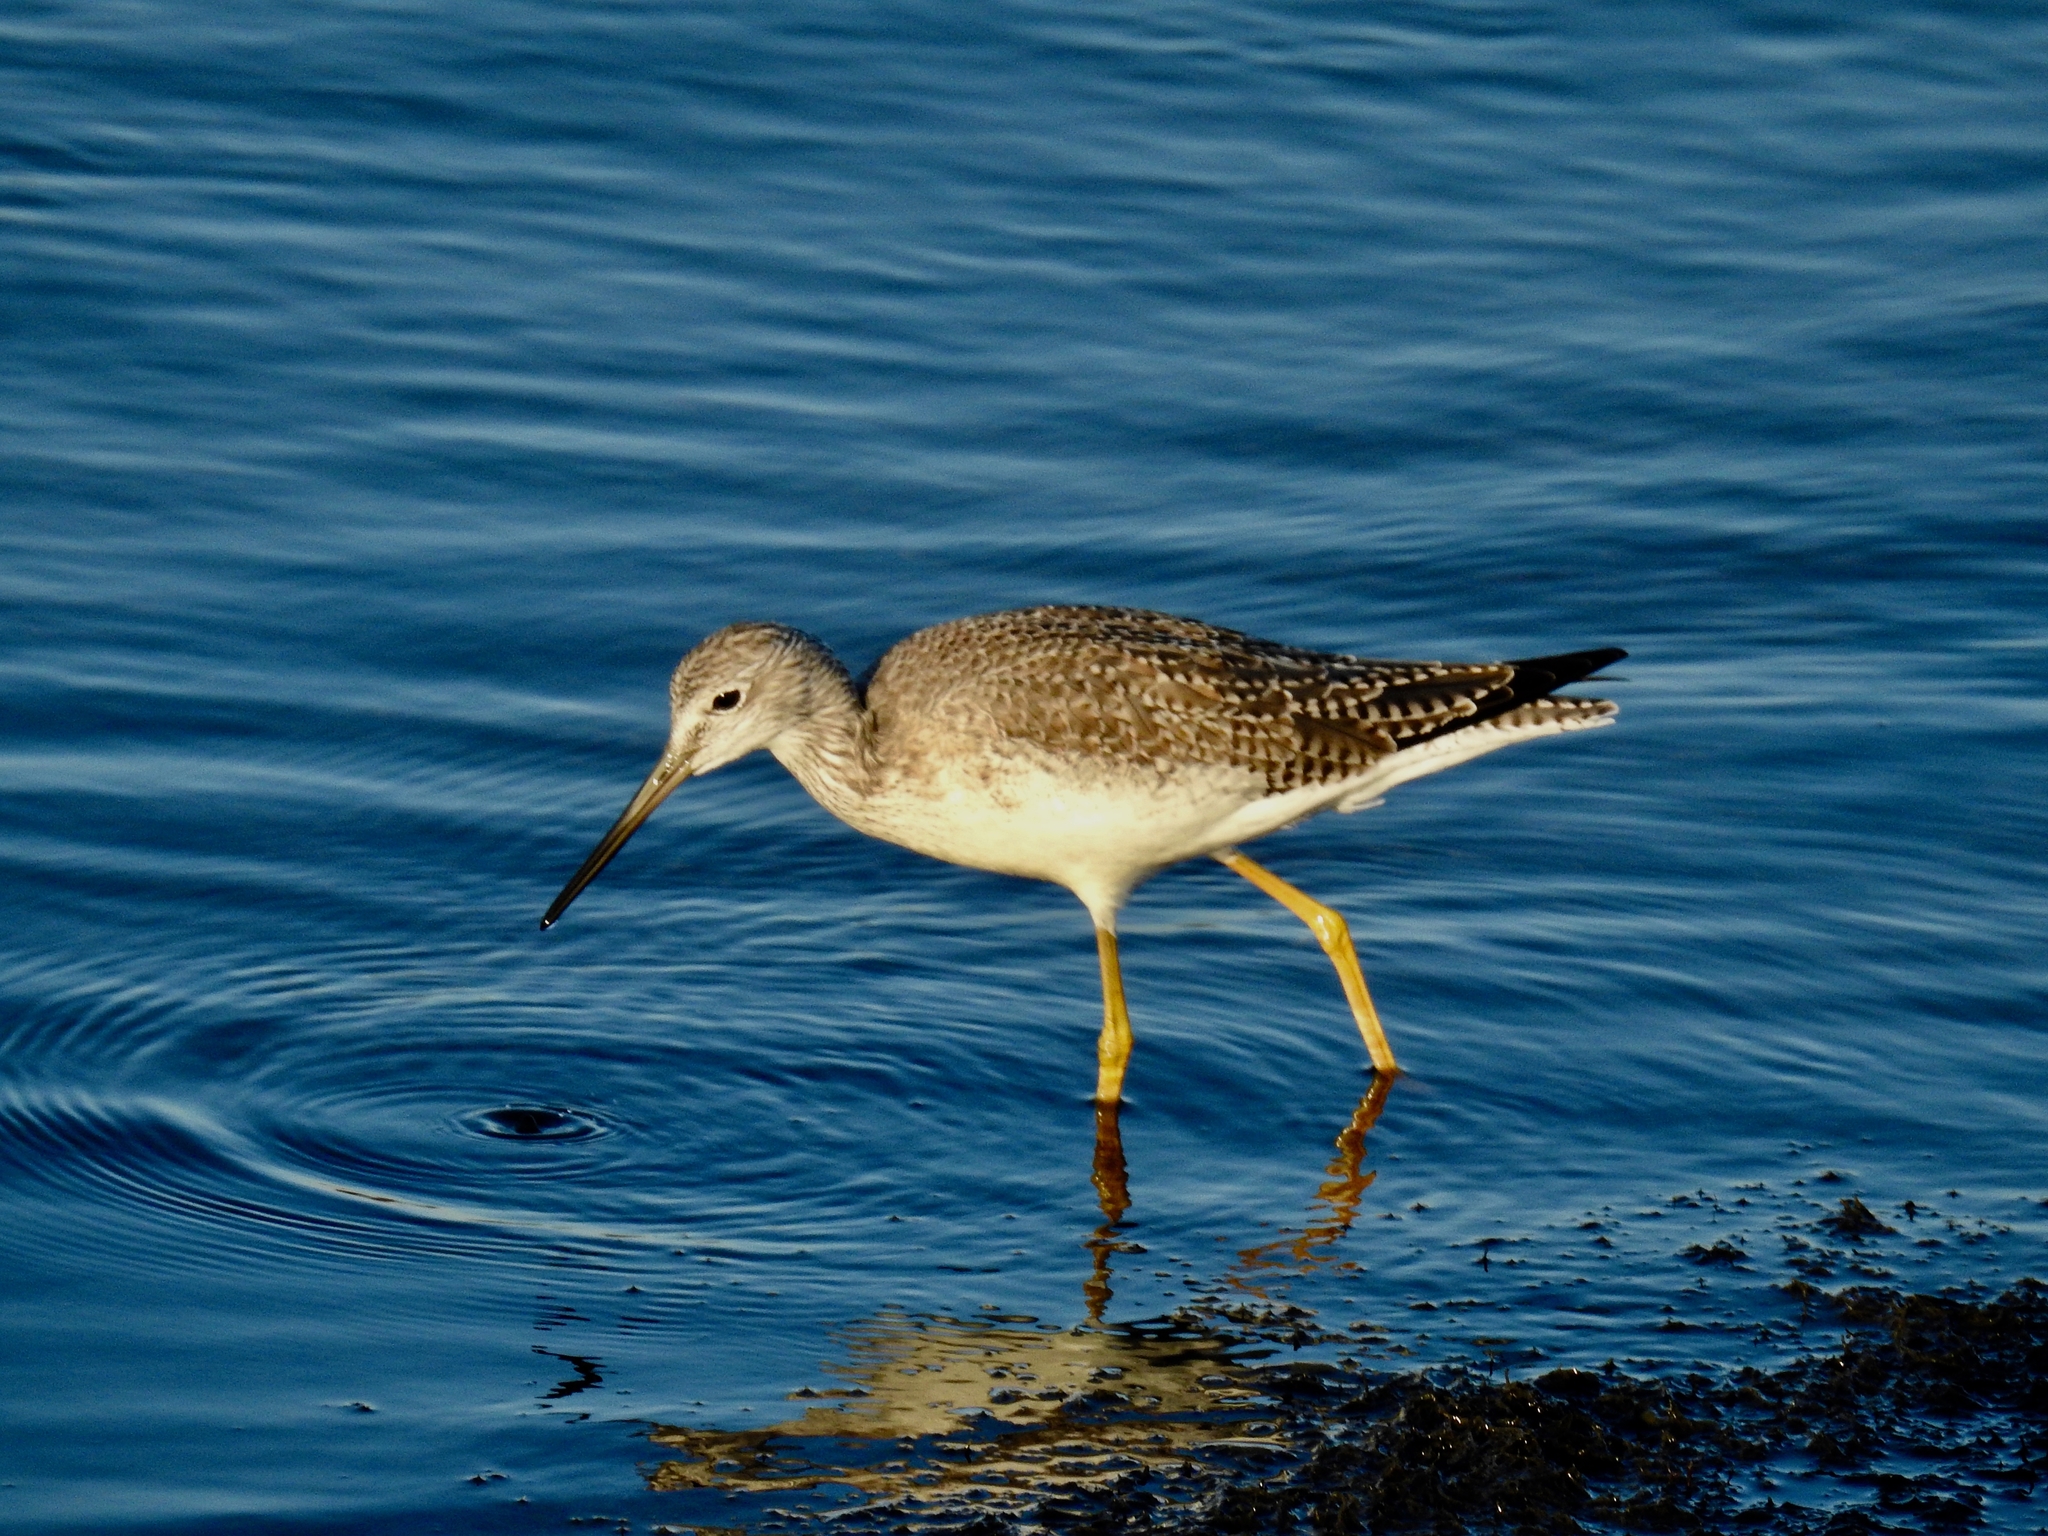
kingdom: Animalia
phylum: Chordata
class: Aves
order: Charadriiformes
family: Scolopacidae
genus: Tringa
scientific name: Tringa melanoleuca
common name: Greater yellowlegs
